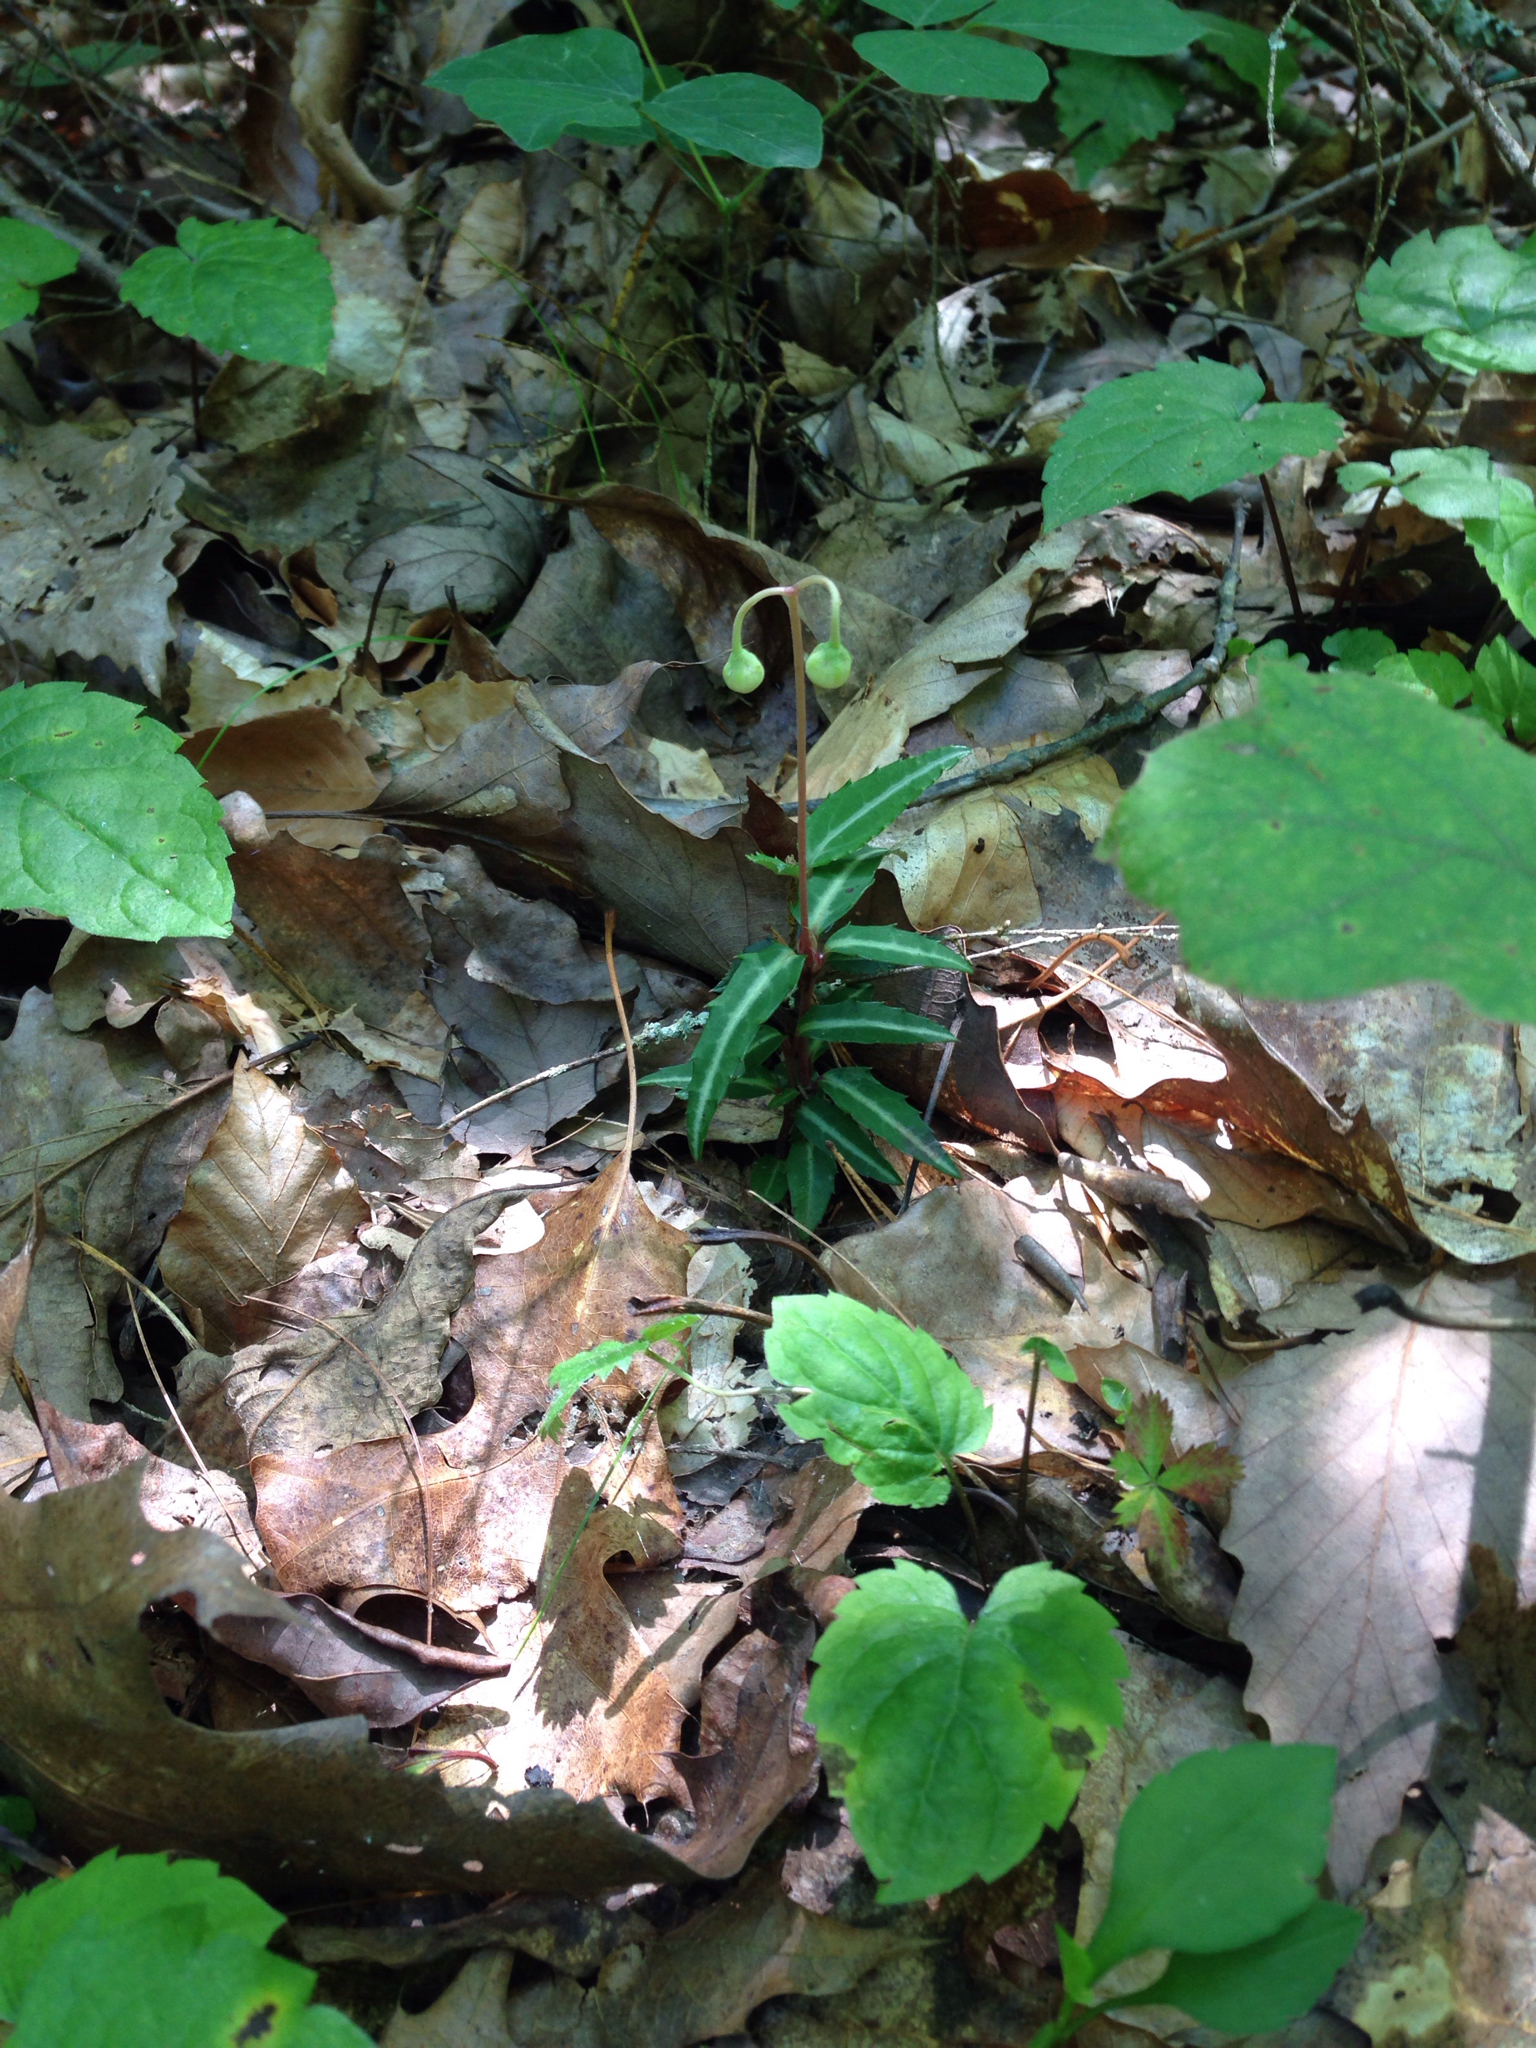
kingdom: Plantae
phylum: Tracheophyta
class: Magnoliopsida
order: Ericales
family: Ericaceae
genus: Chimaphila
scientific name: Chimaphila maculata
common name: Spotted pipsissewa
